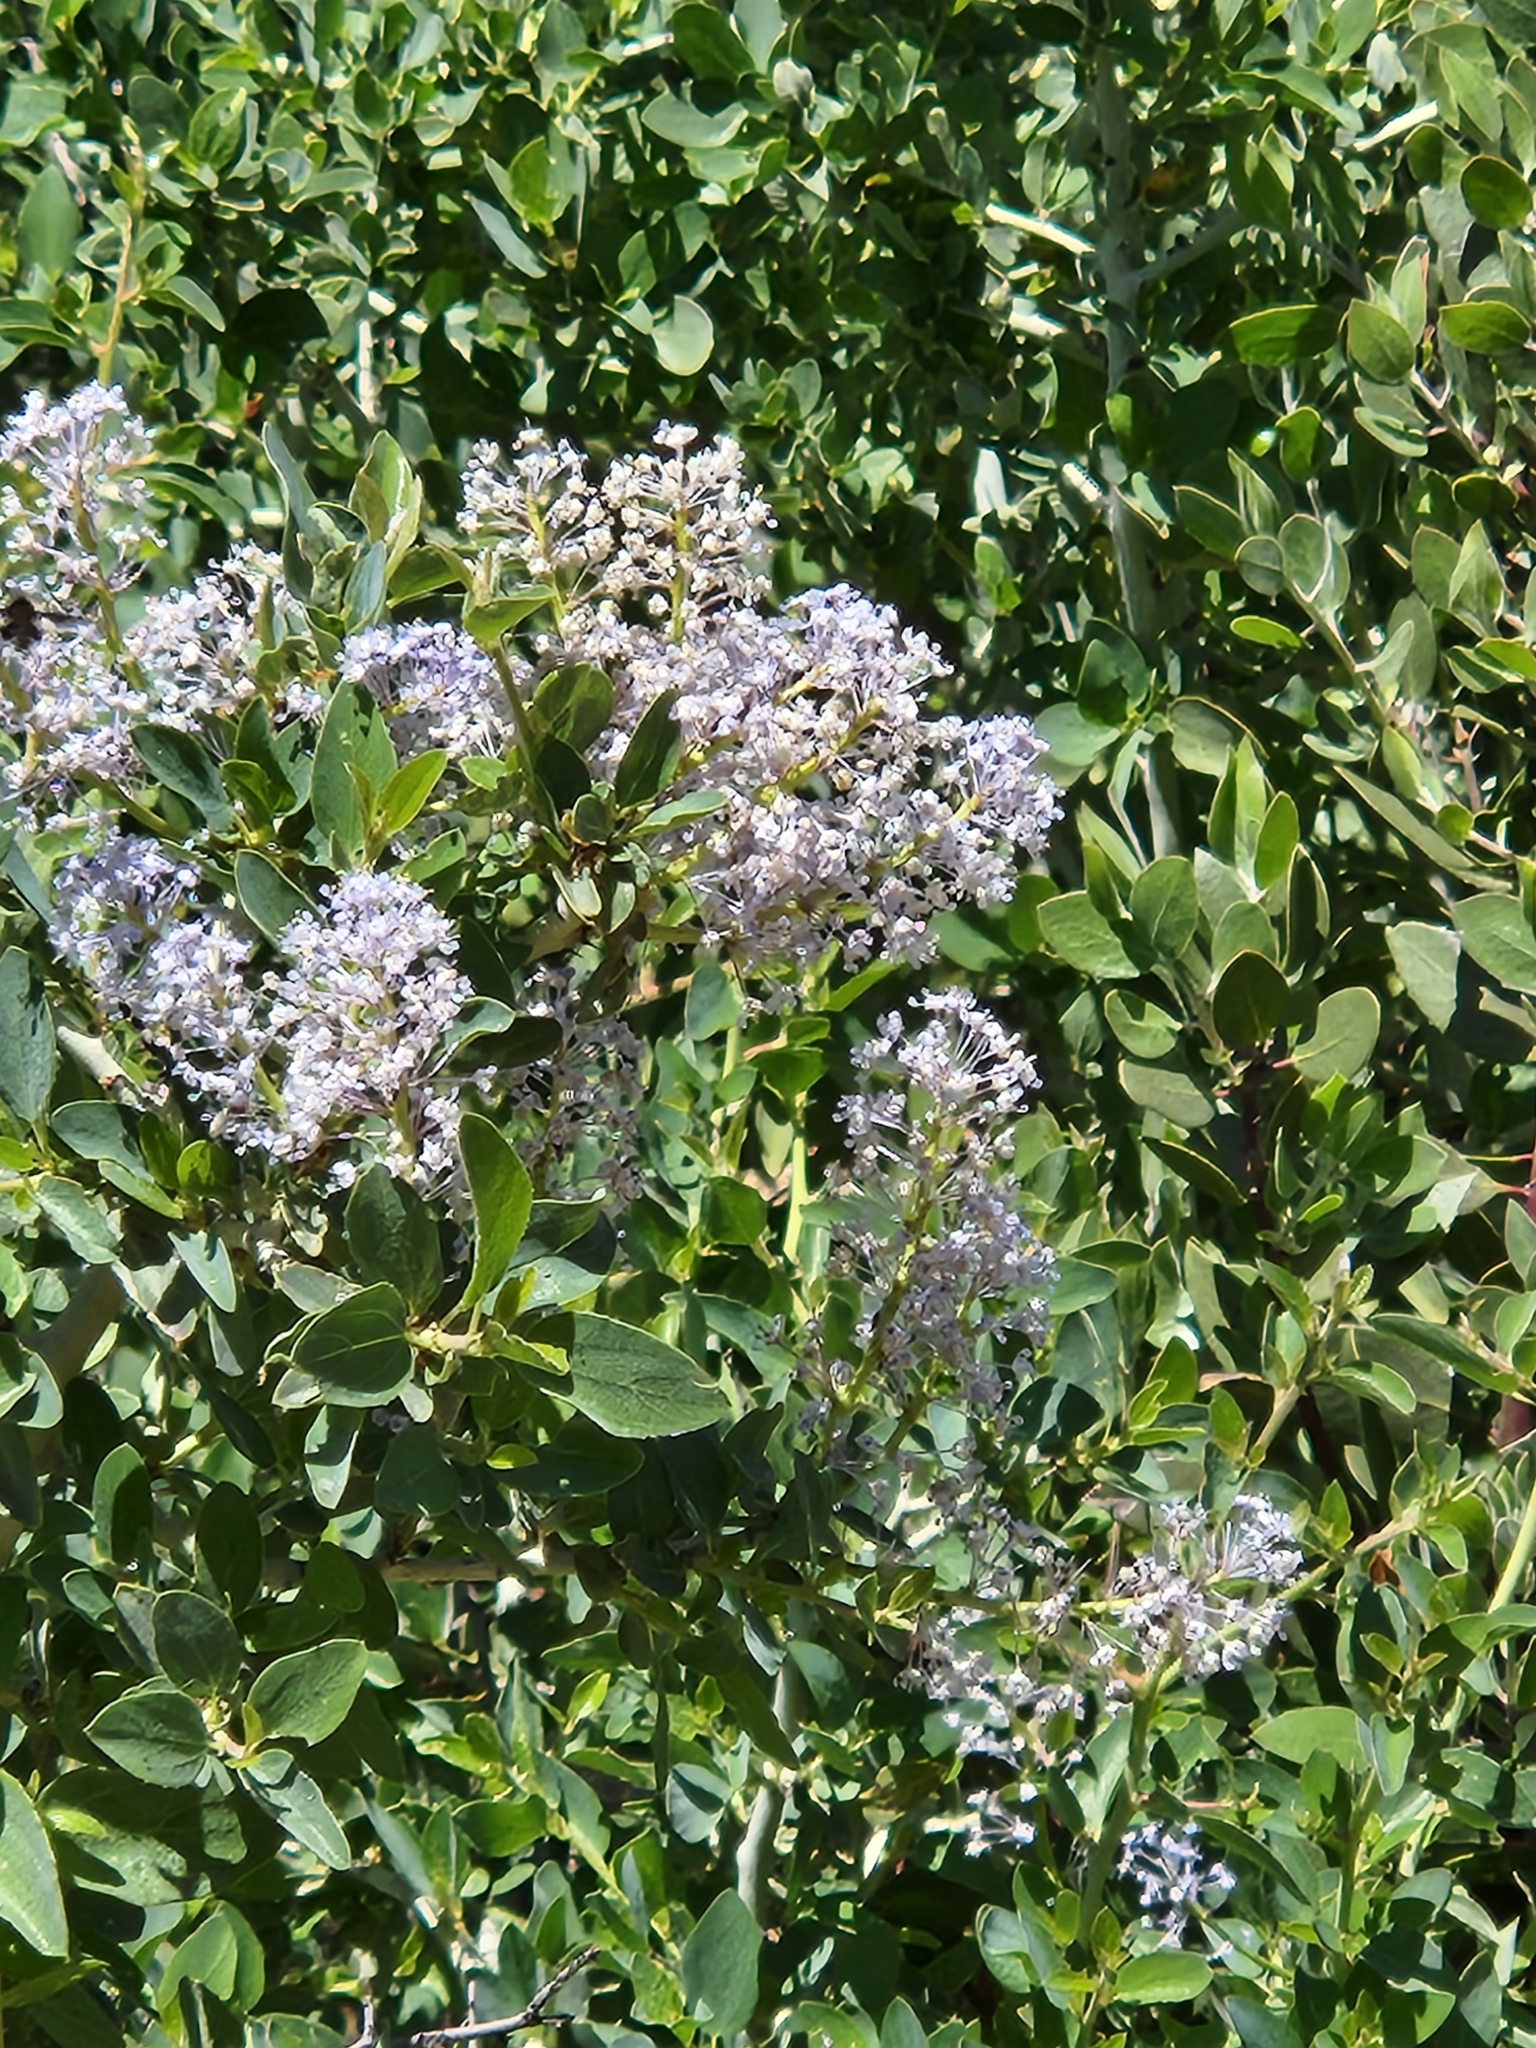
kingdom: Plantae
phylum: Tracheophyta
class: Magnoliopsida
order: Rosales
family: Rhamnaceae
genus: Ceanothus
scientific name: Ceanothus leucodermis
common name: Chaparral whitethorn
